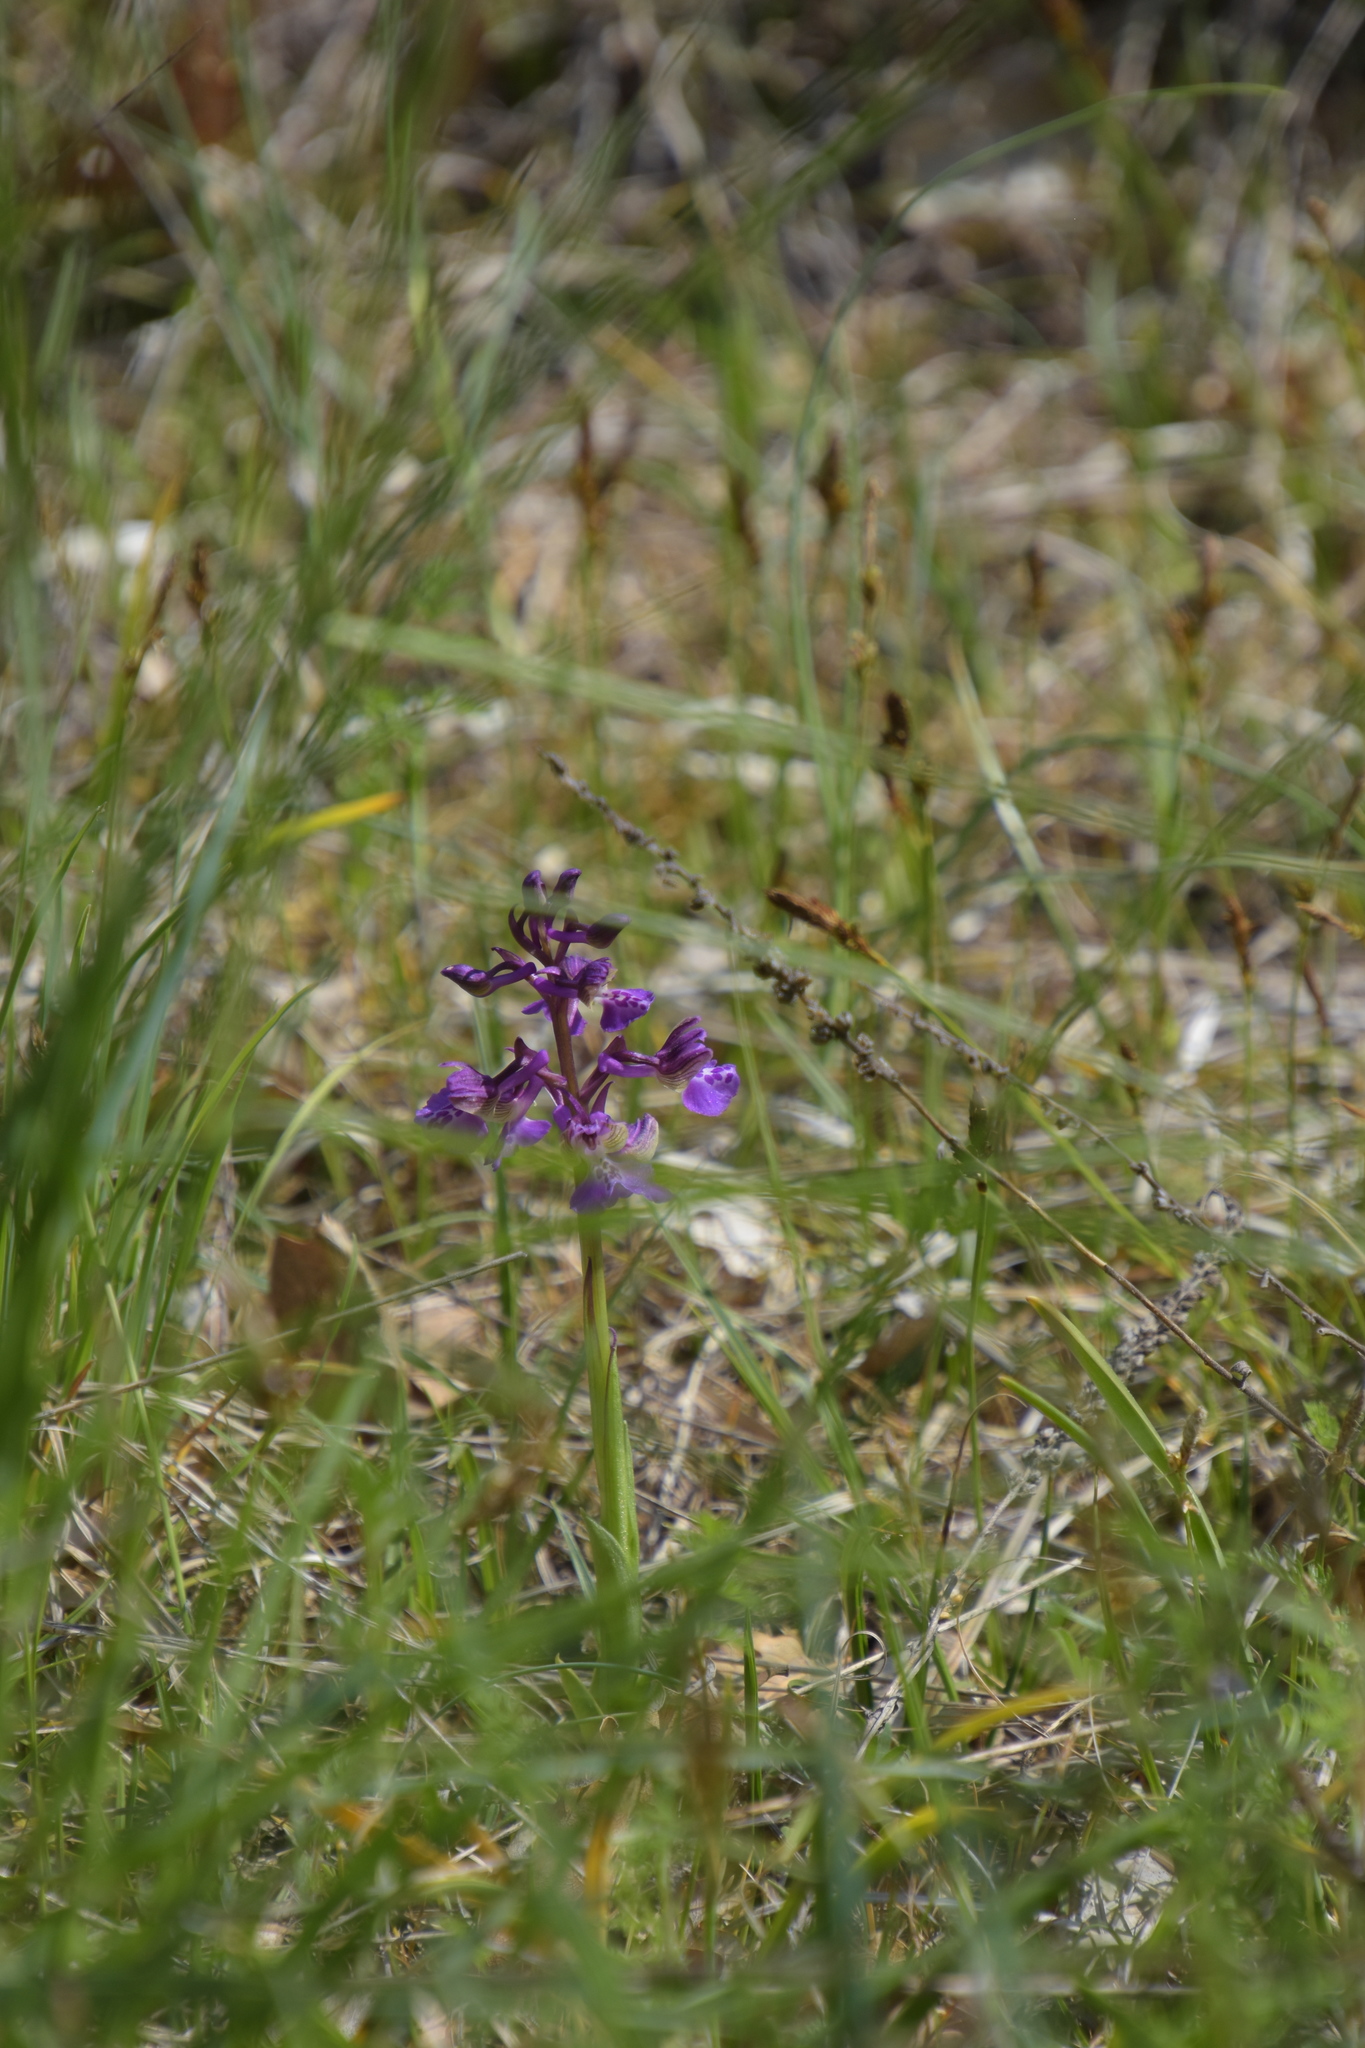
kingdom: Plantae
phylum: Tracheophyta
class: Liliopsida
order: Asparagales
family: Orchidaceae
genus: Anacamptis
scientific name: Anacamptis morio
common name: Green-winged orchid
